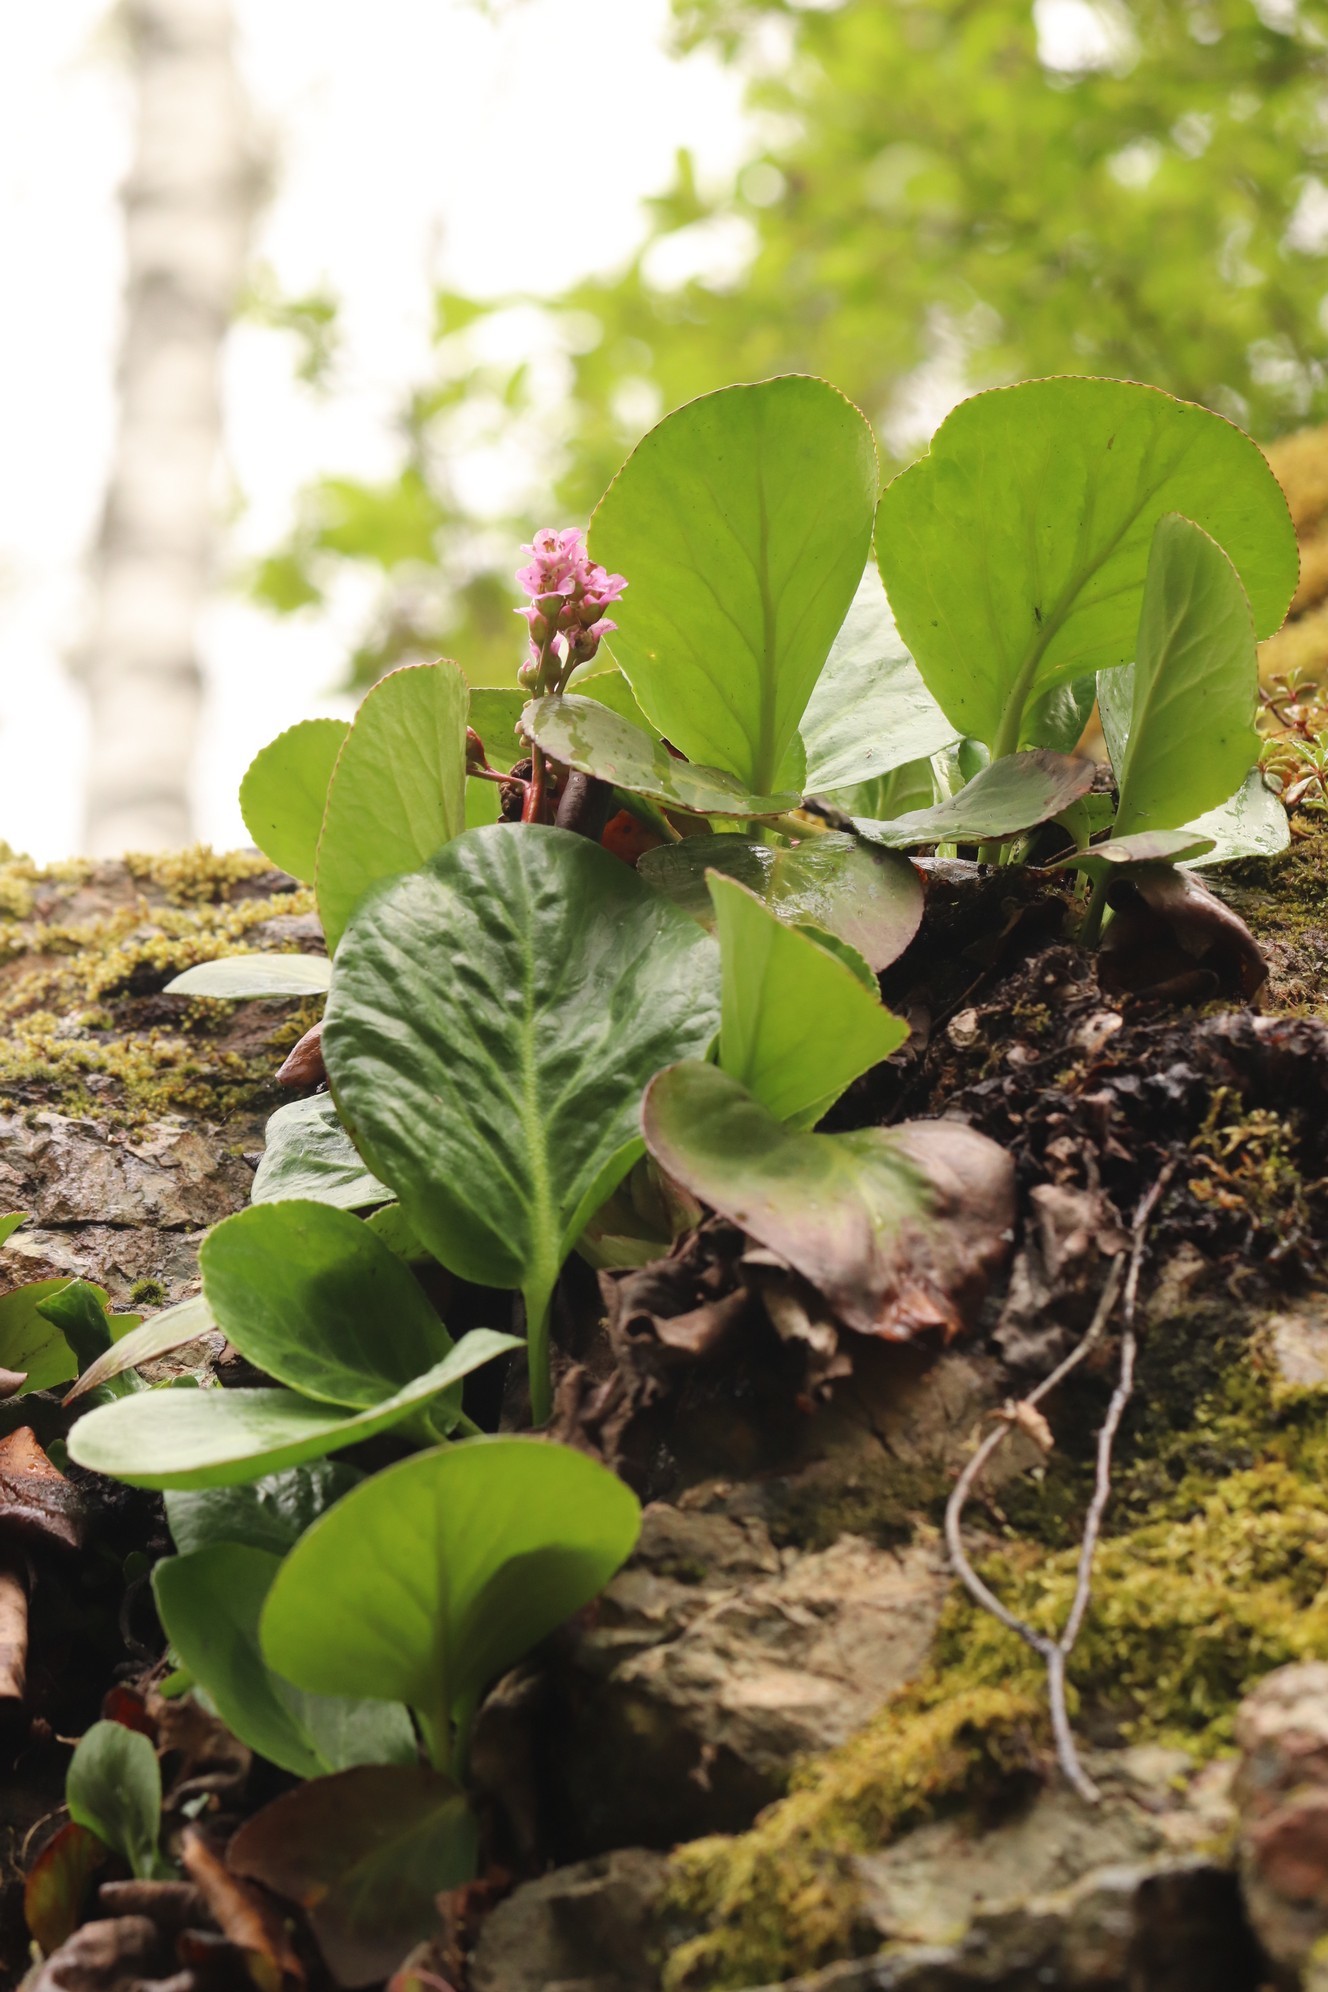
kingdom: Plantae
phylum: Tracheophyta
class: Magnoliopsida
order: Saxifragales
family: Saxifragaceae
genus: Bergenia
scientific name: Bergenia crassifolia
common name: Elephant-ears
